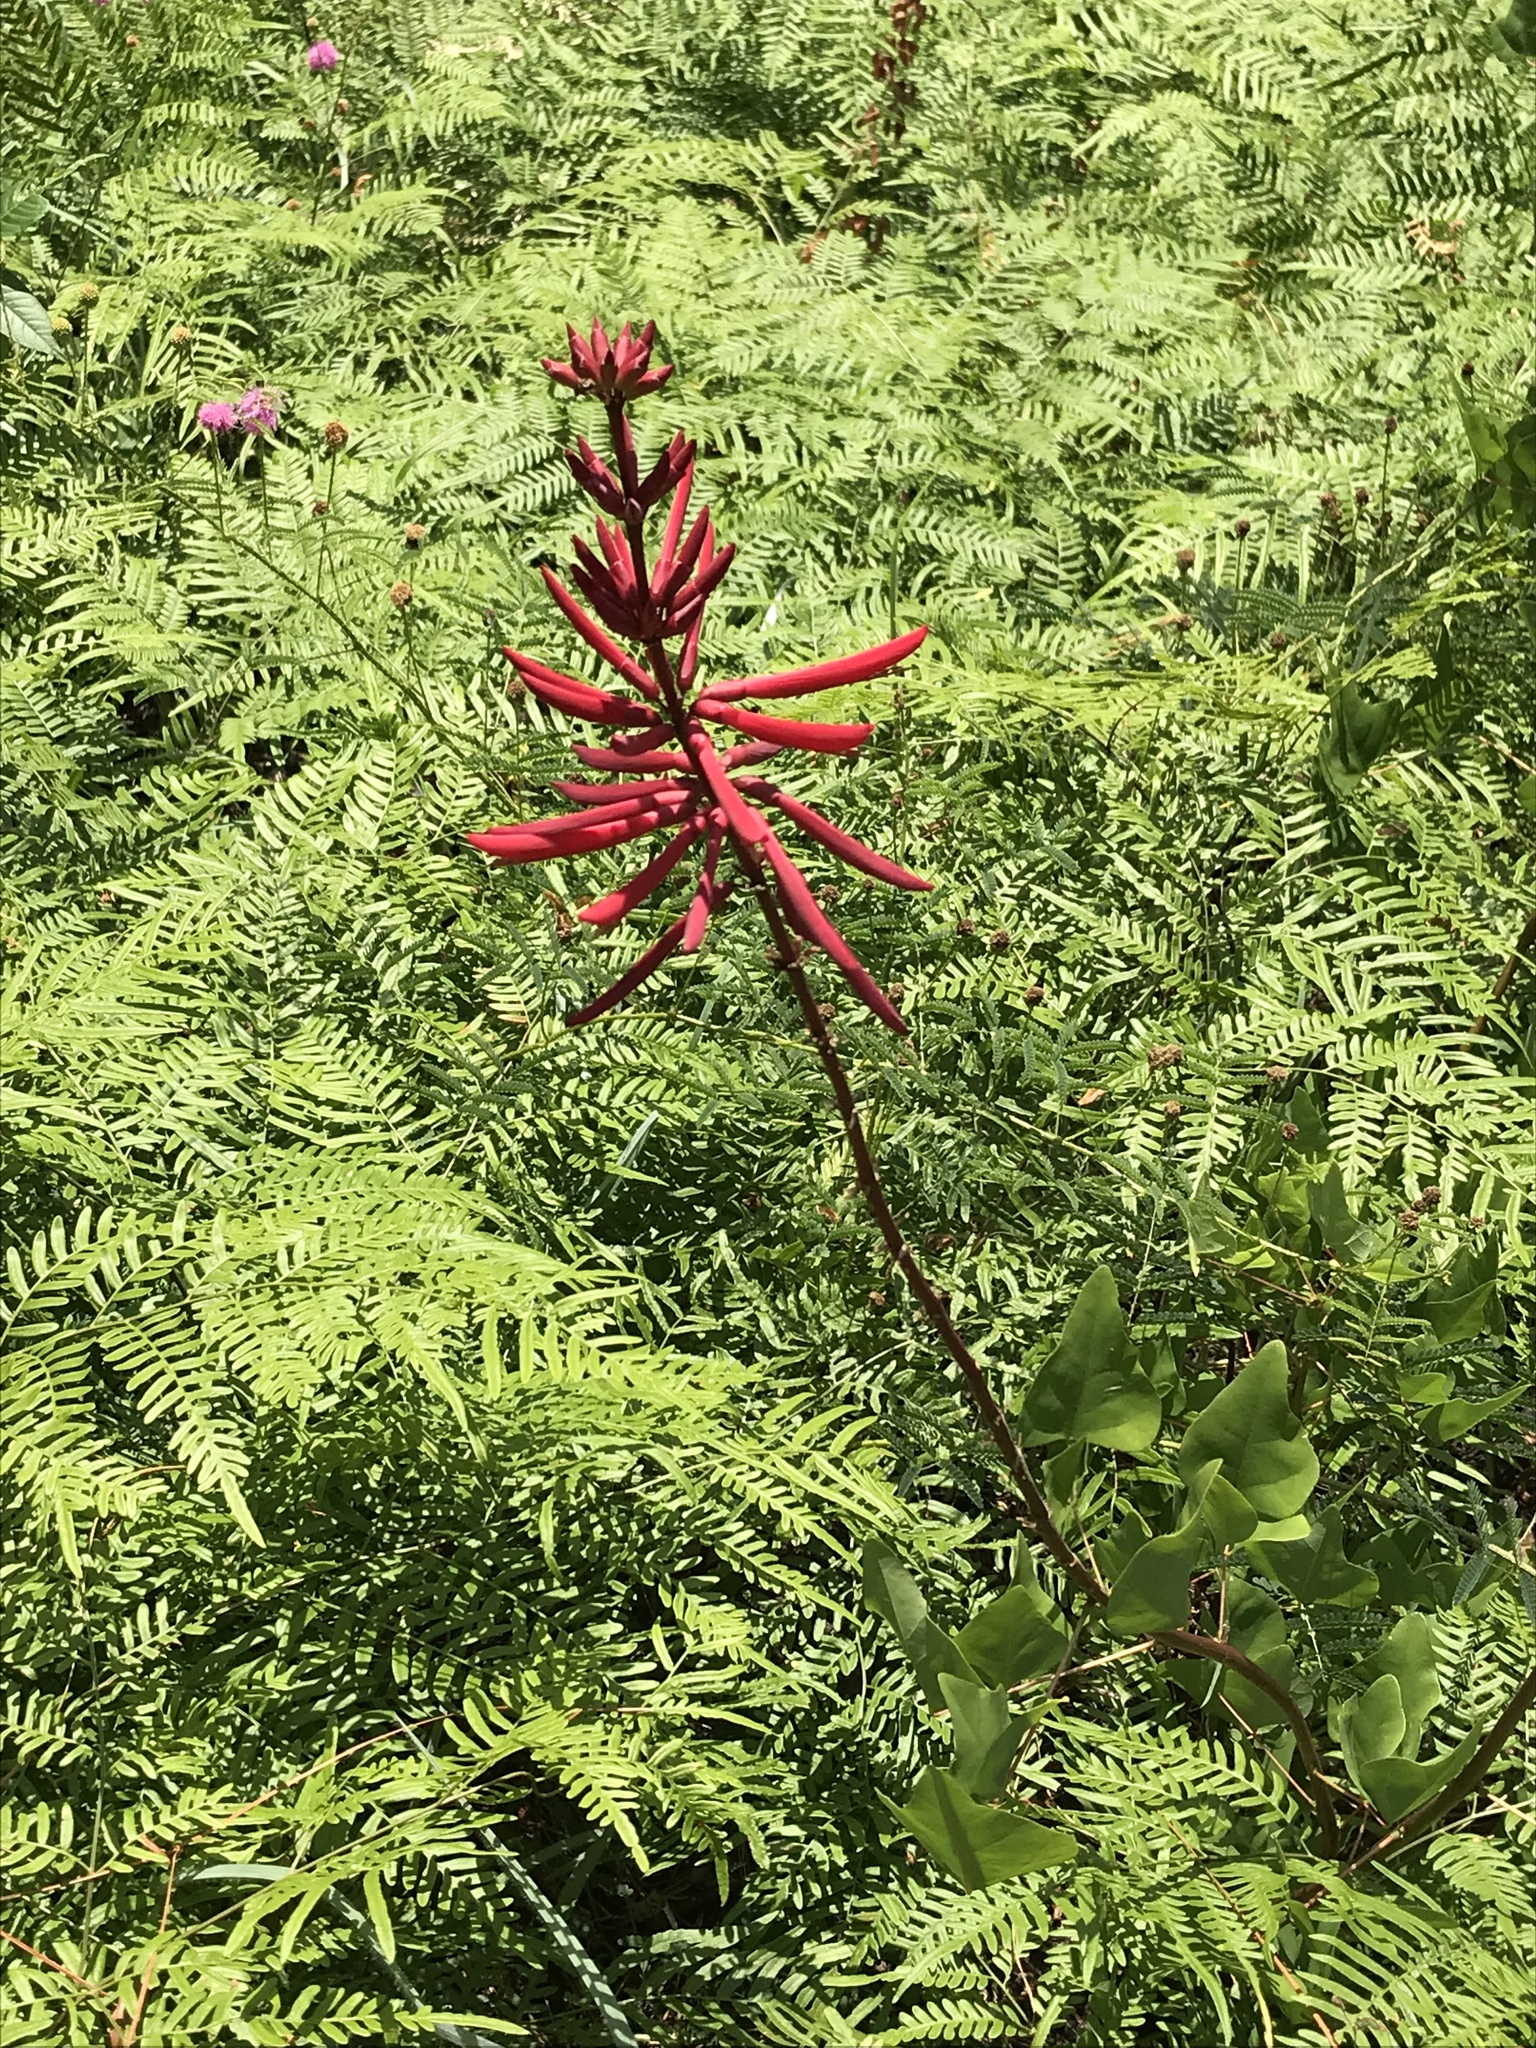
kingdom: Plantae
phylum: Tracheophyta
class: Magnoliopsida
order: Fabales
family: Fabaceae
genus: Erythrina
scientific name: Erythrina herbacea
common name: Coral-bean
